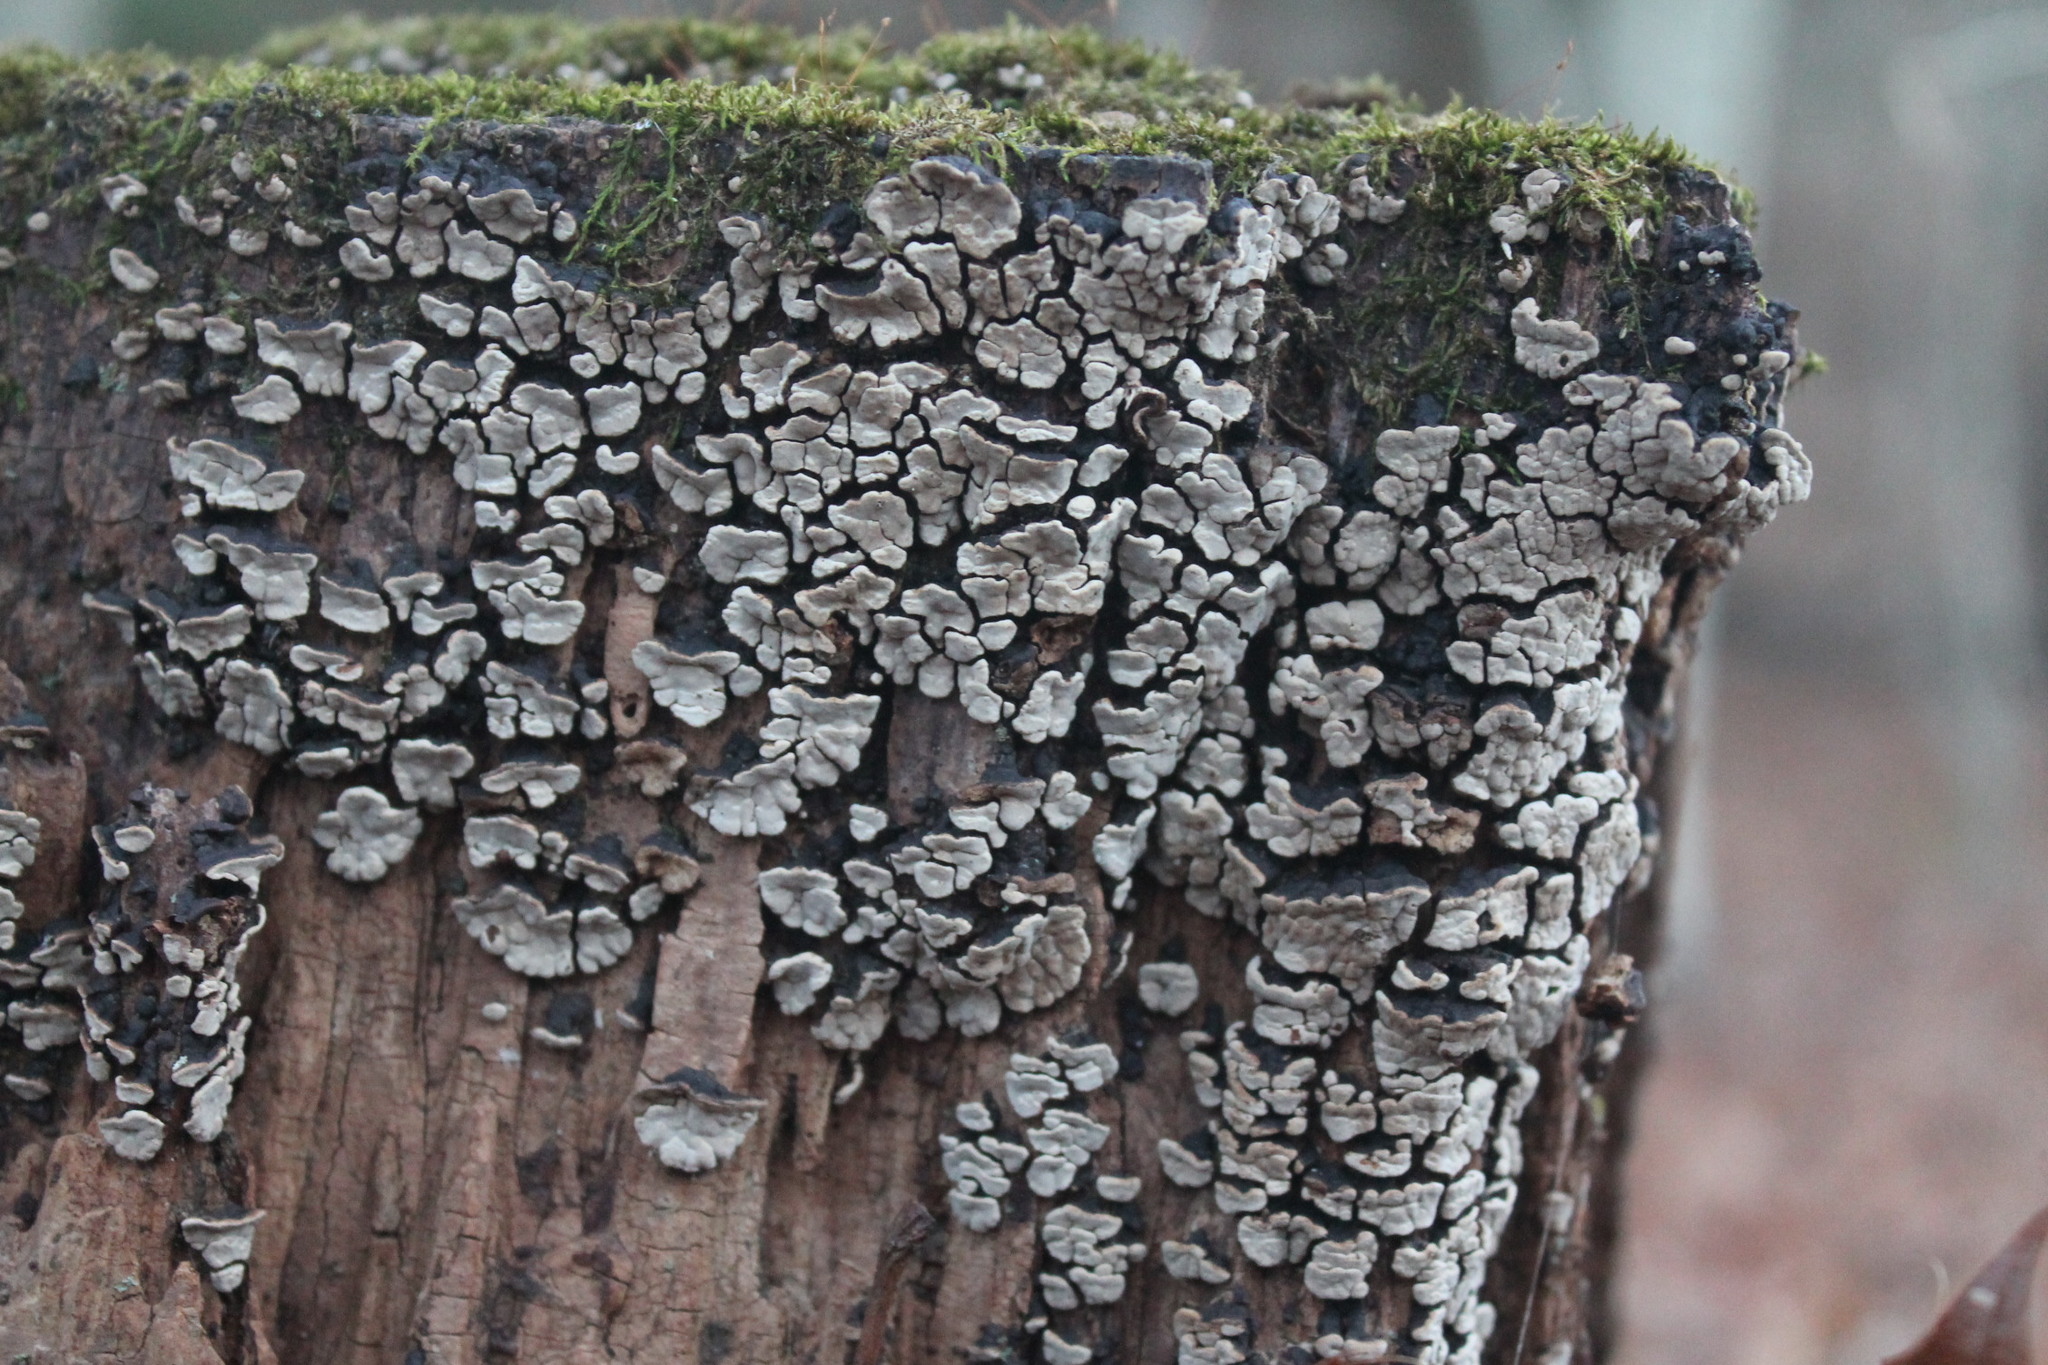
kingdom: Fungi
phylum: Basidiomycota
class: Agaricomycetes
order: Russulales
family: Stereaceae
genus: Xylobolus
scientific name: Xylobolus frustulatus
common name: Ceramic parchment
